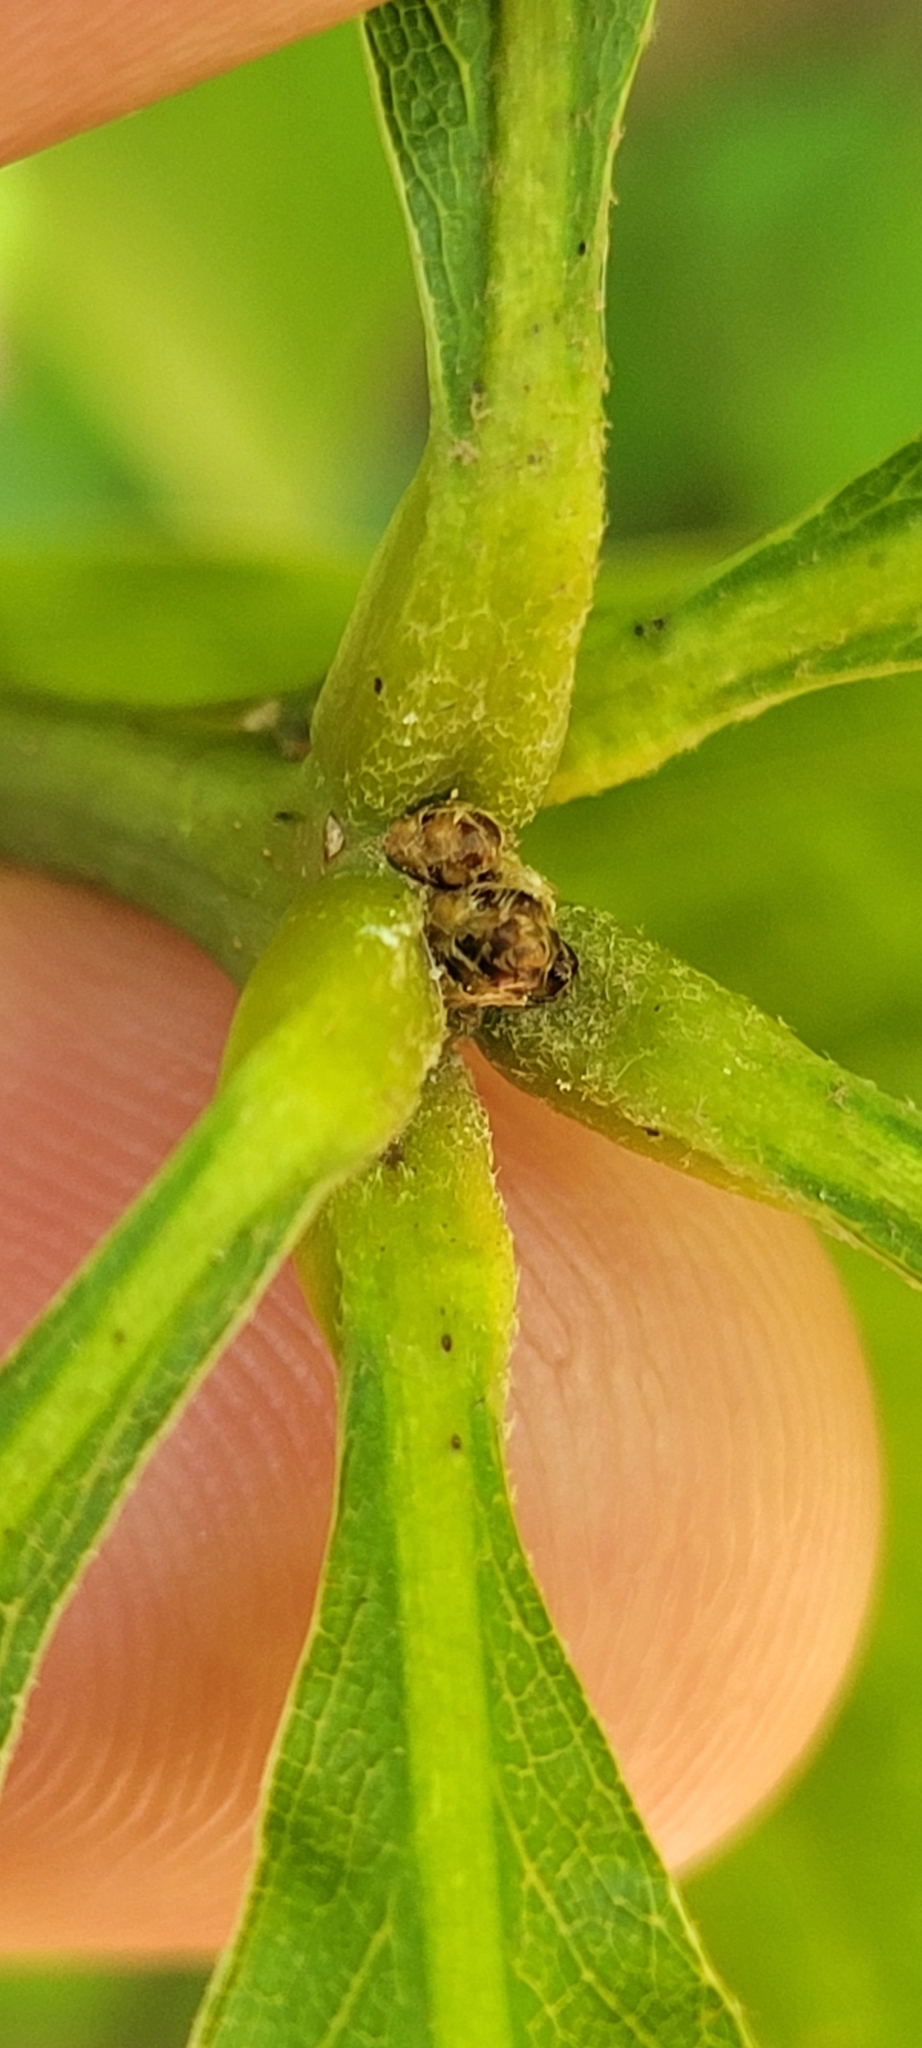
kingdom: Plantae
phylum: Tracheophyta
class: Magnoliopsida
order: Fagales
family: Fagaceae
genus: Quercus
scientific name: Quercus imbricaria
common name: Shingle oak
